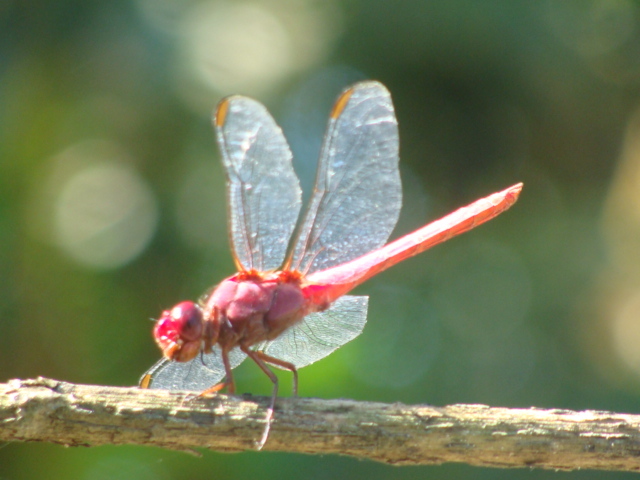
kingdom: Animalia
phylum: Arthropoda
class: Insecta
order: Odonata
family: Libellulidae
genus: Orthemis
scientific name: Orthemis discolor
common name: Carmine skimmer
